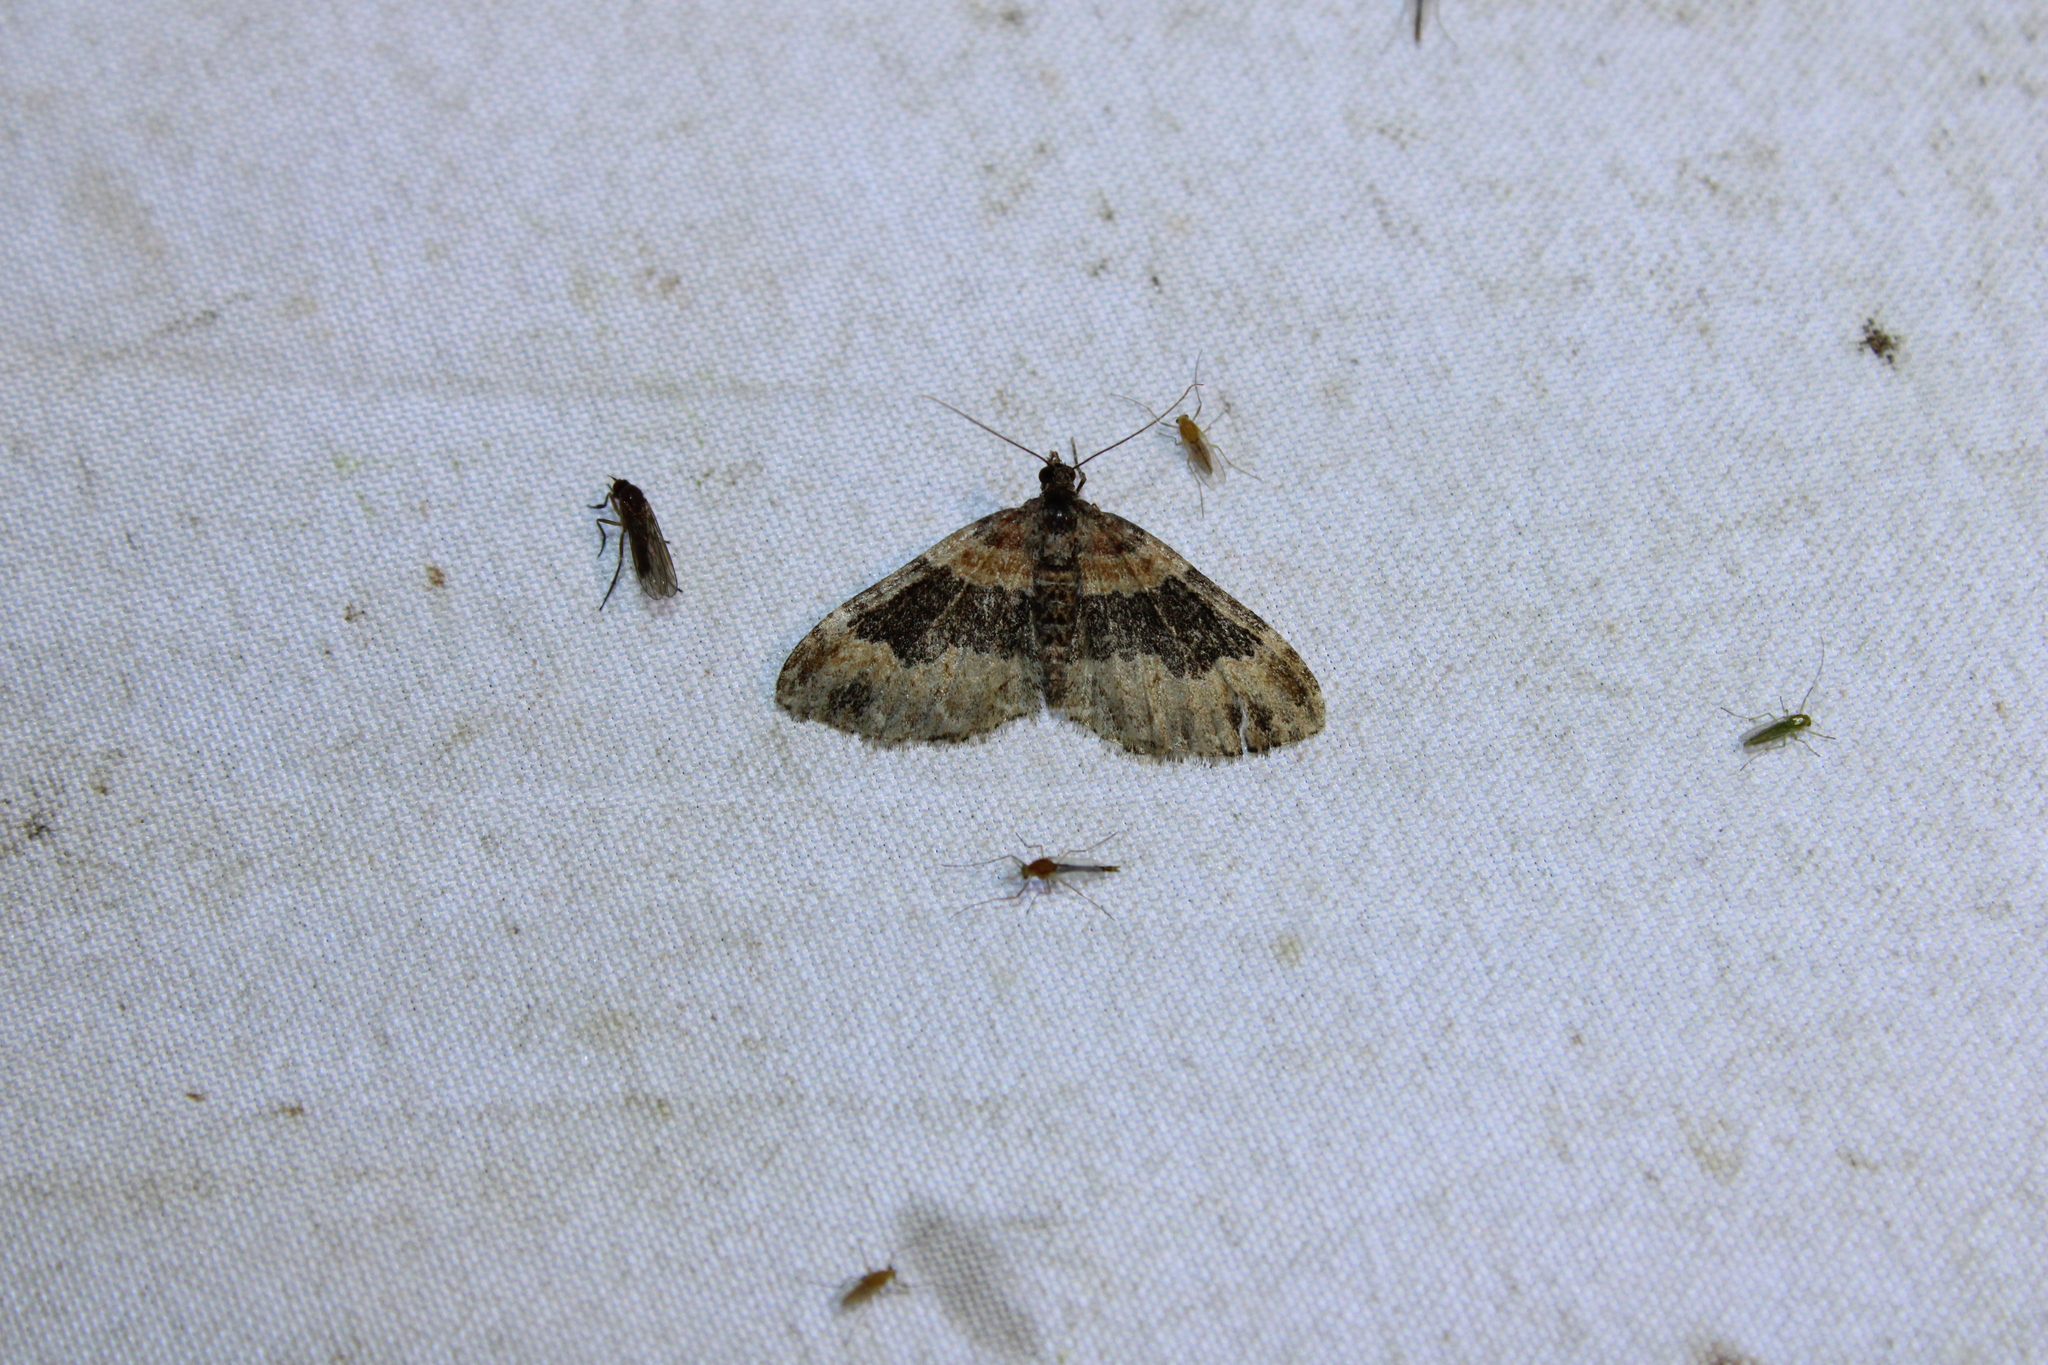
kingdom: Animalia
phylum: Arthropoda
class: Insecta
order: Lepidoptera
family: Geometridae
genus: Xanthorhoe
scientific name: Xanthorhoe ferrugata
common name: Dark-barred twin-spot carpet
